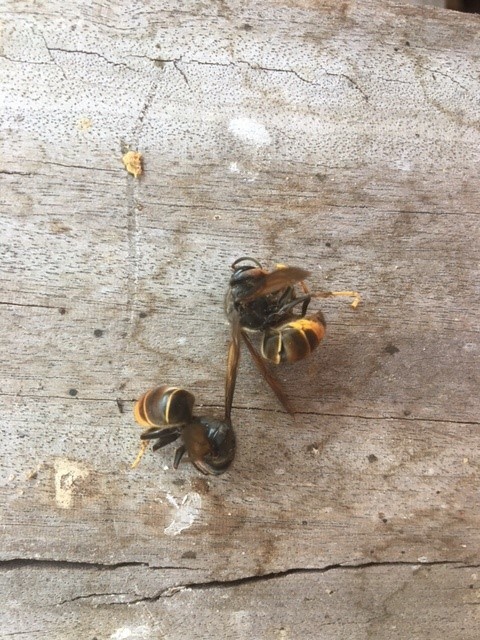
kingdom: Animalia
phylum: Arthropoda
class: Insecta
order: Hymenoptera
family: Vespidae
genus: Vespa
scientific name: Vespa velutina
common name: Asian hornet
